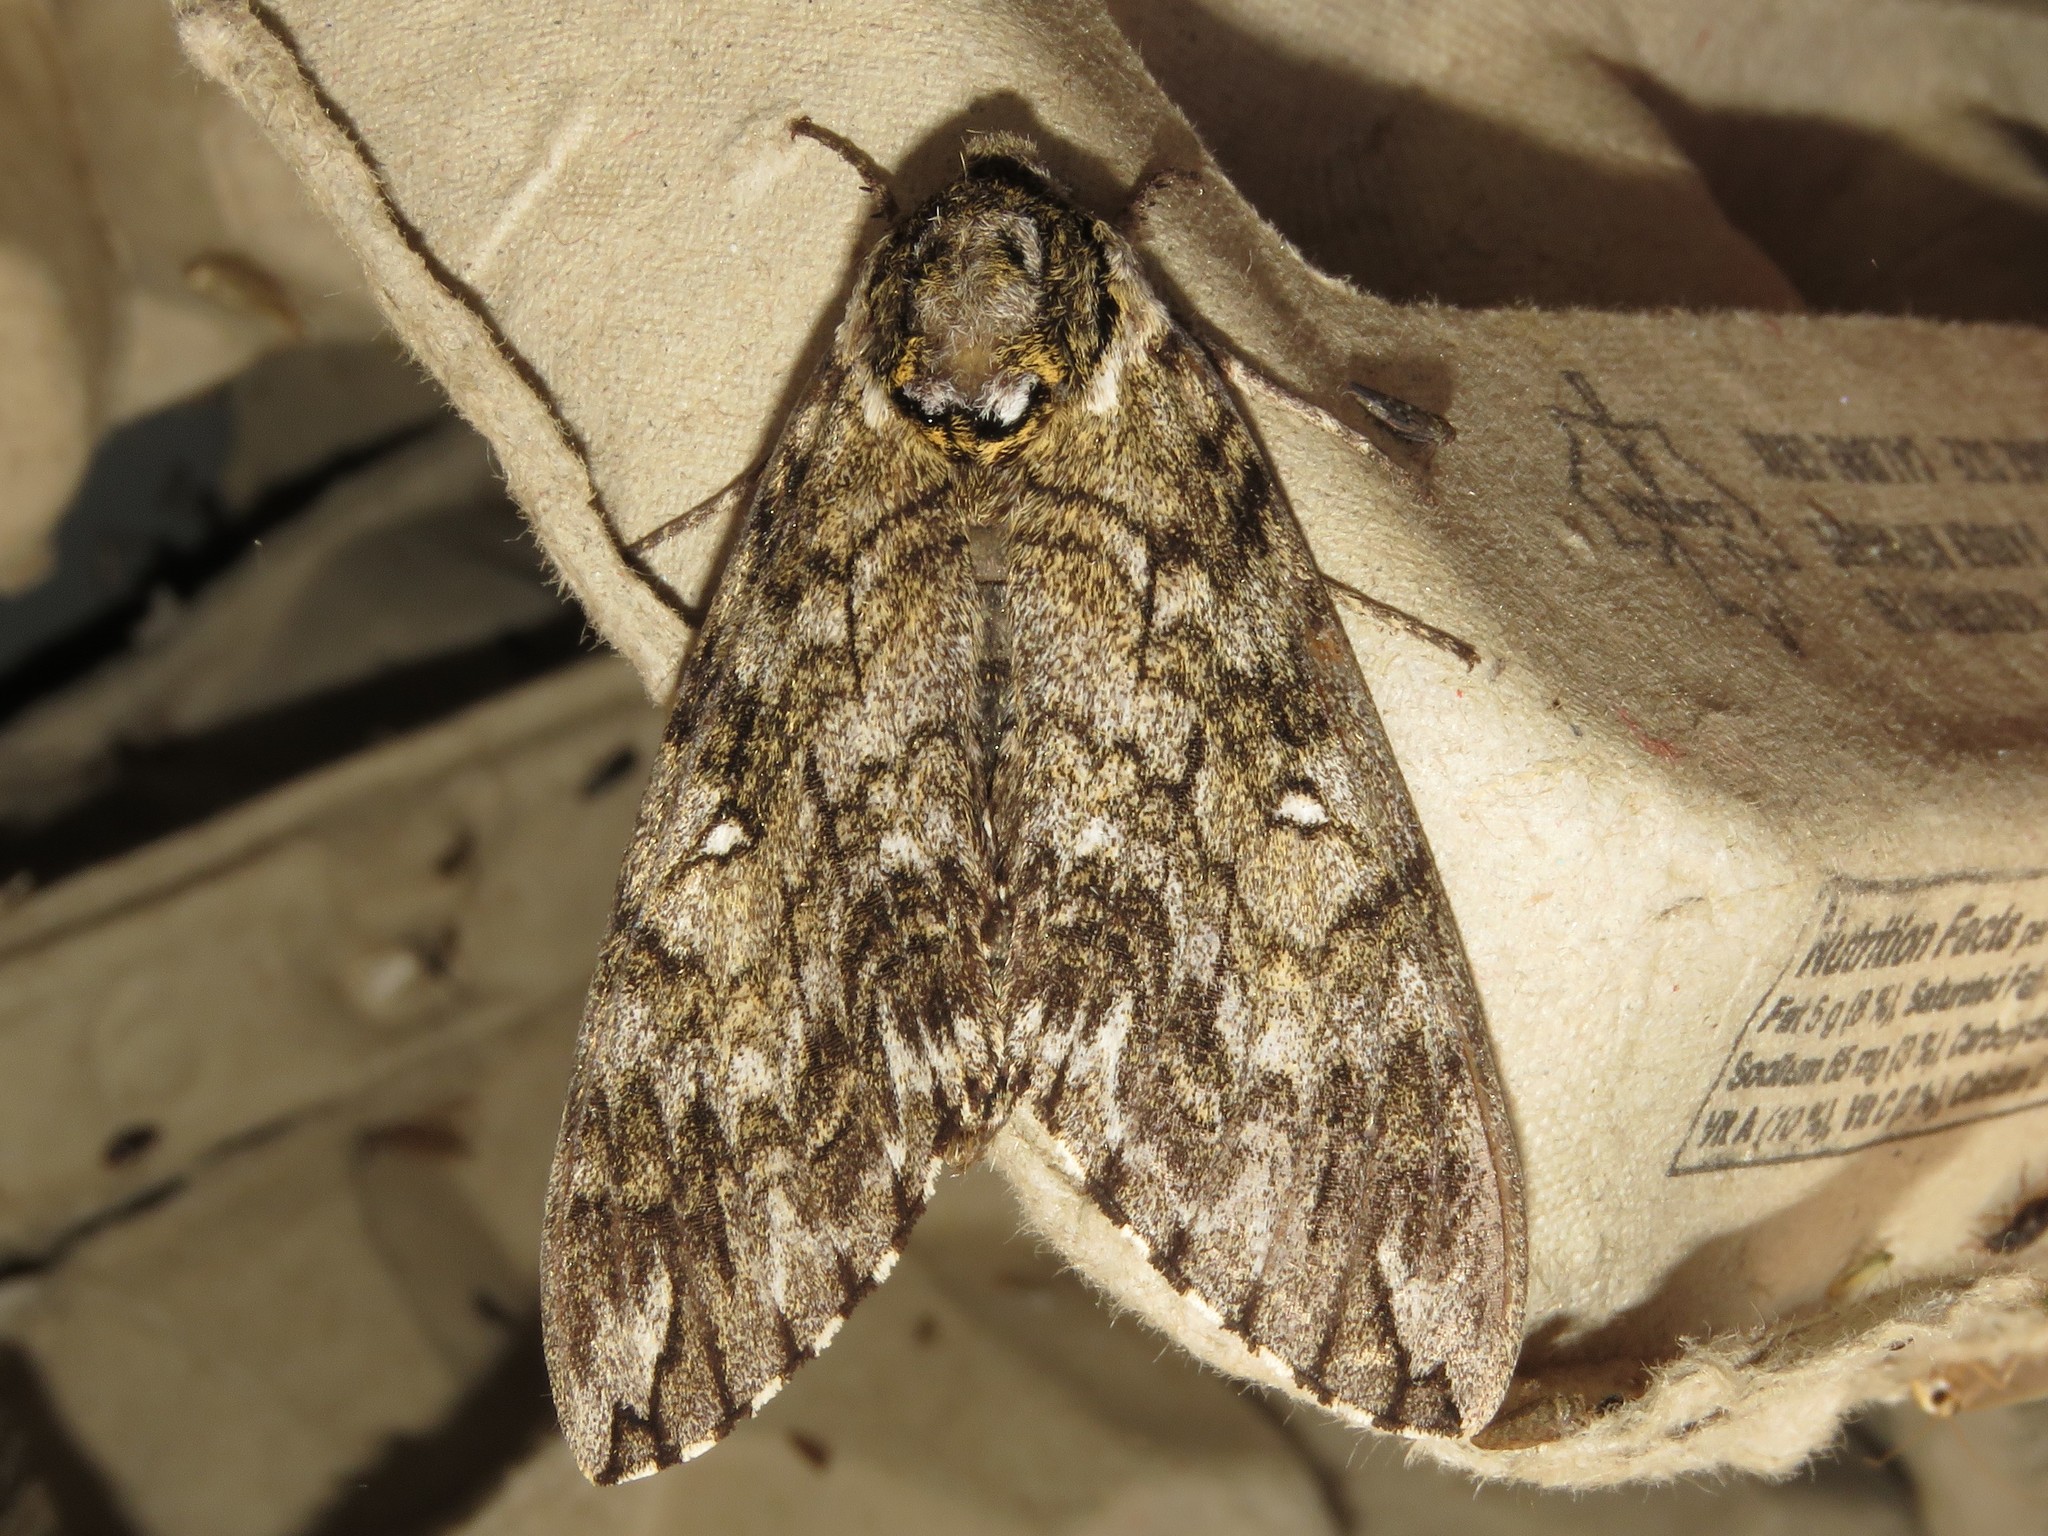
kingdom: Animalia
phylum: Arthropoda
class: Insecta
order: Lepidoptera
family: Sphingidae
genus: Ceratomia
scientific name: Ceratomia undulosa
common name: Waved sphinx
